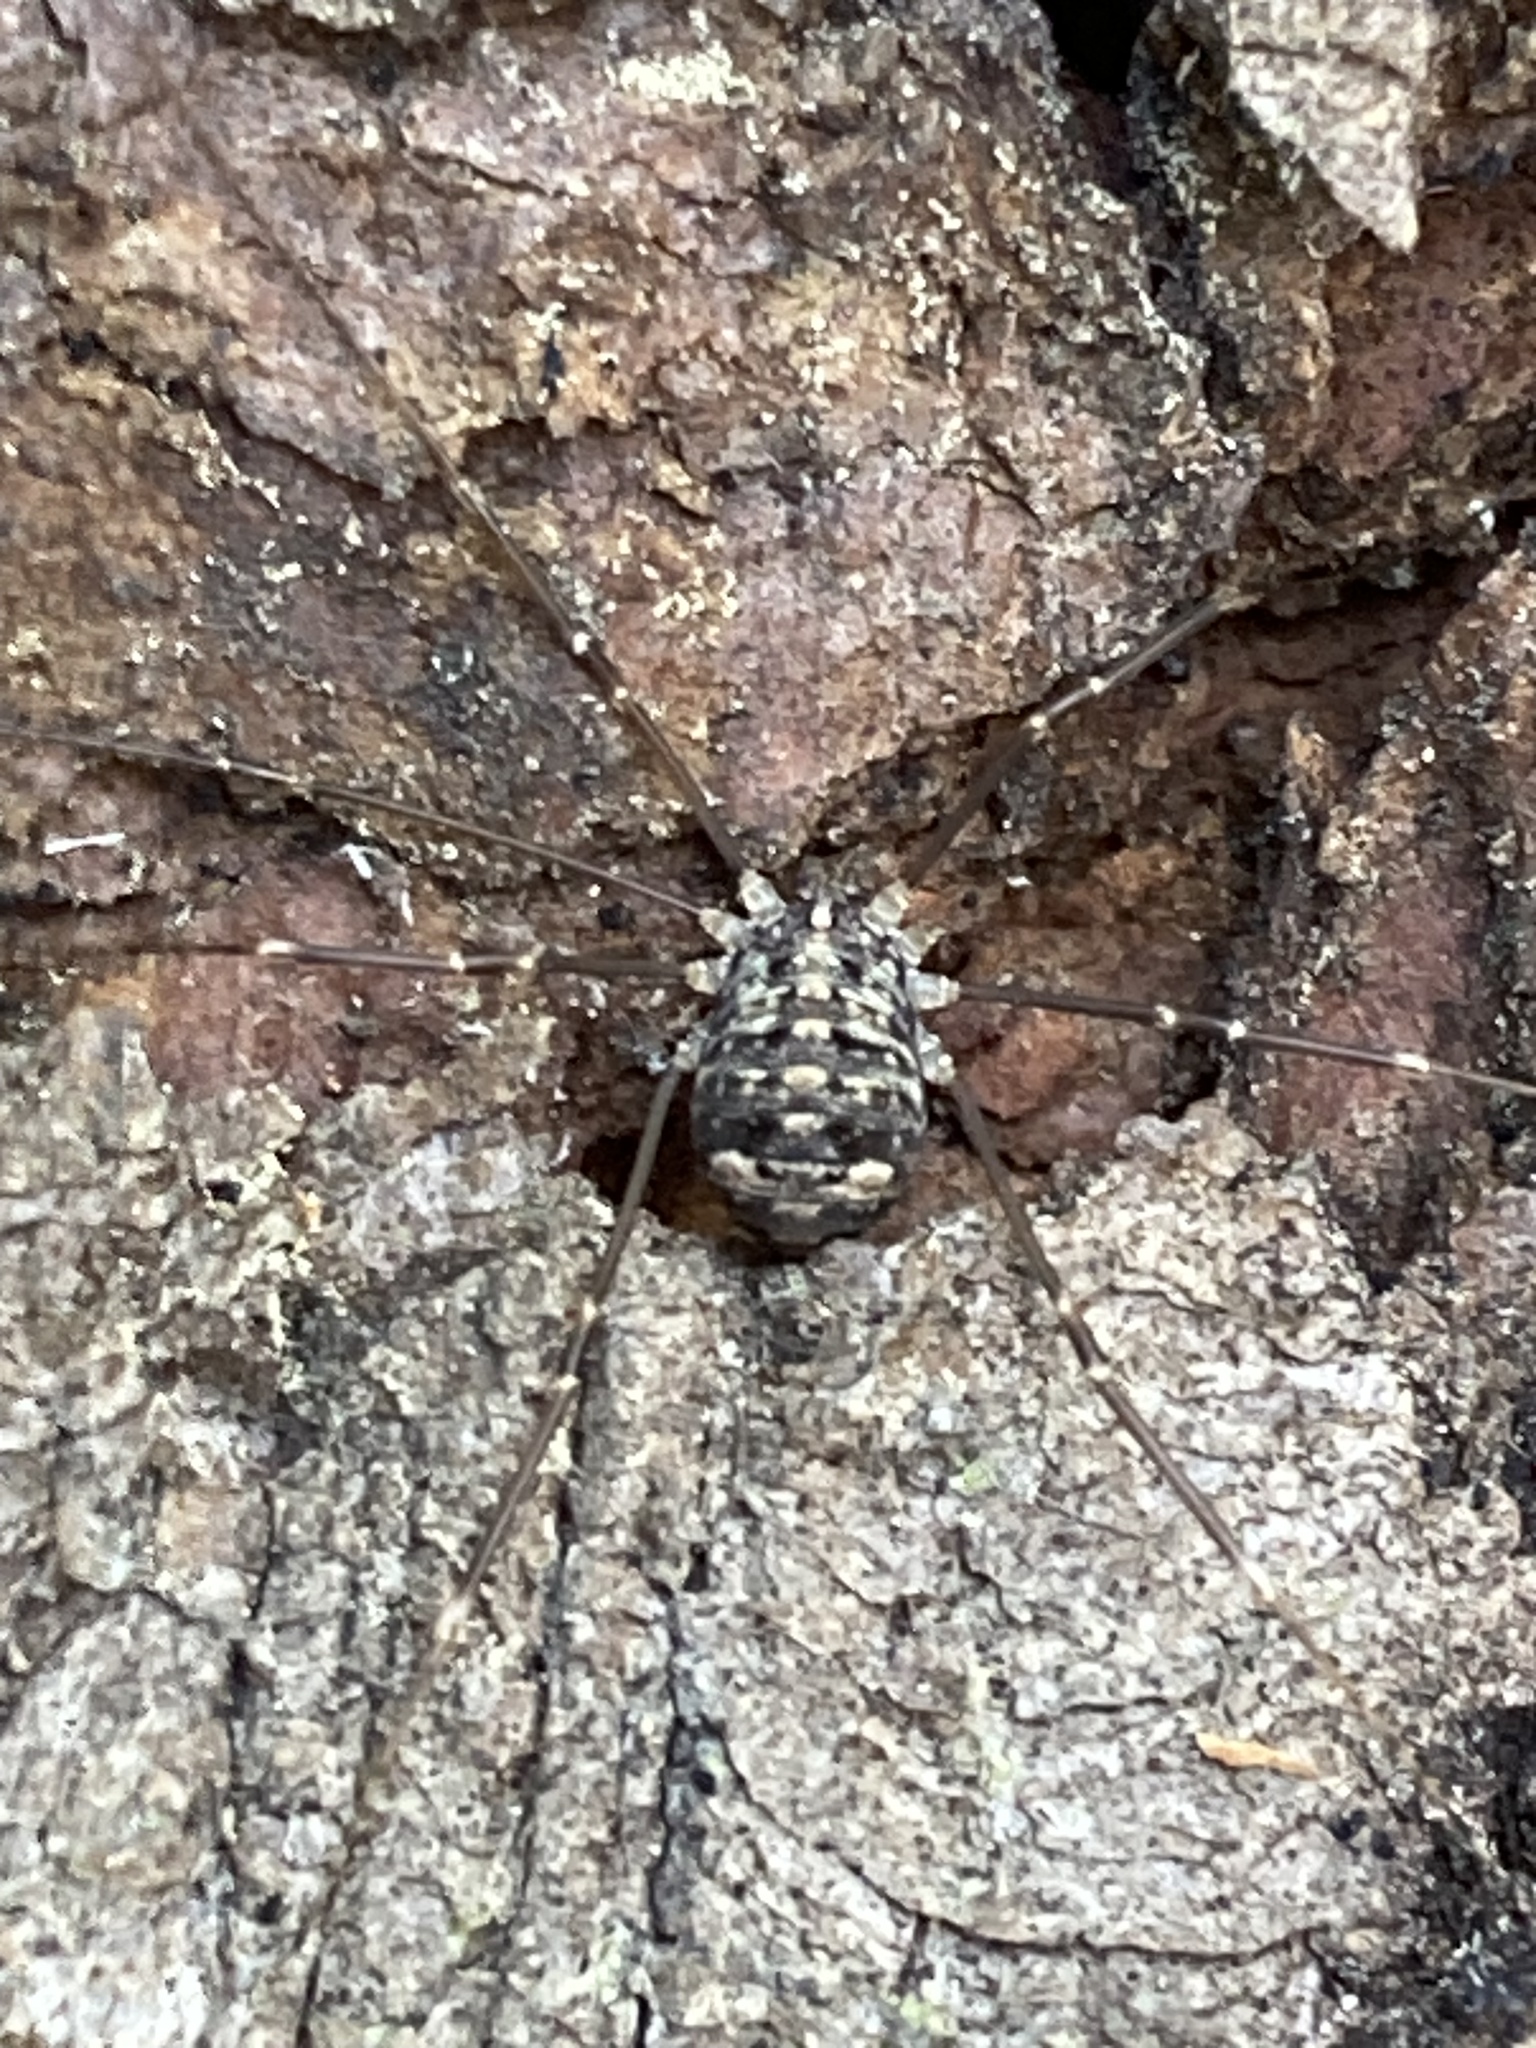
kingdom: Animalia
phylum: Arthropoda
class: Arachnida
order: Opiliones
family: Sclerosomatidae
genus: Nelima
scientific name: Nelima doriae
